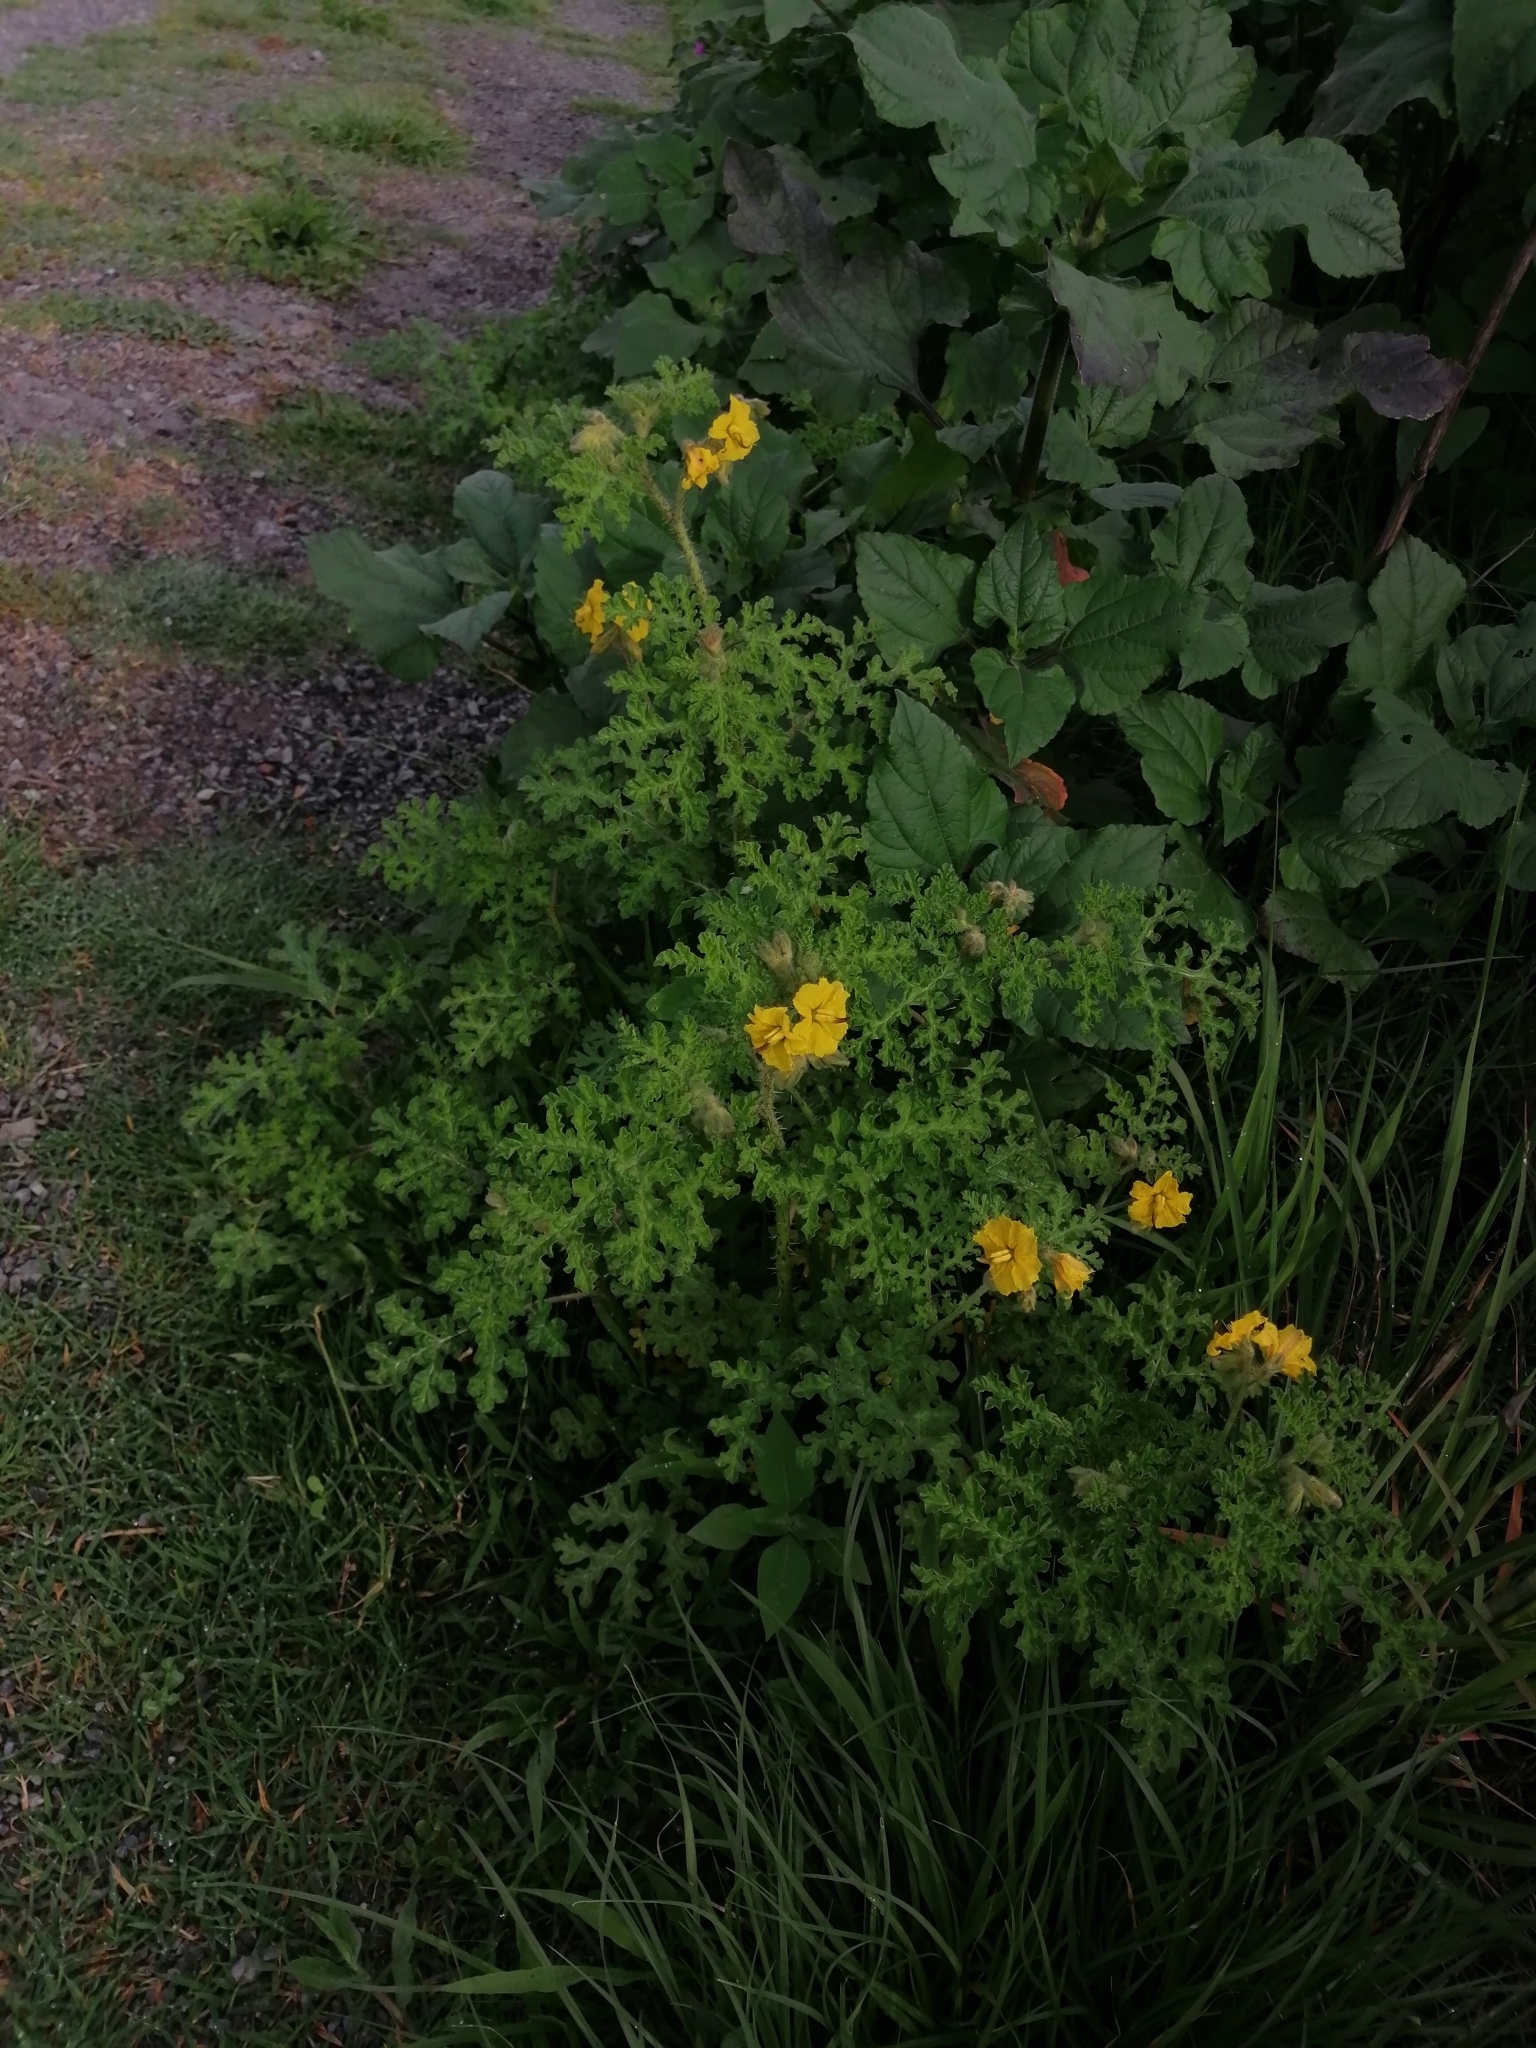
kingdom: Plantae
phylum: Tracheophyta
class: Magnoliopsida
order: Solanales
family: Solanaceae
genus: Solanum
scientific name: Solanum angustifolium
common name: Buffalobur nightshade
